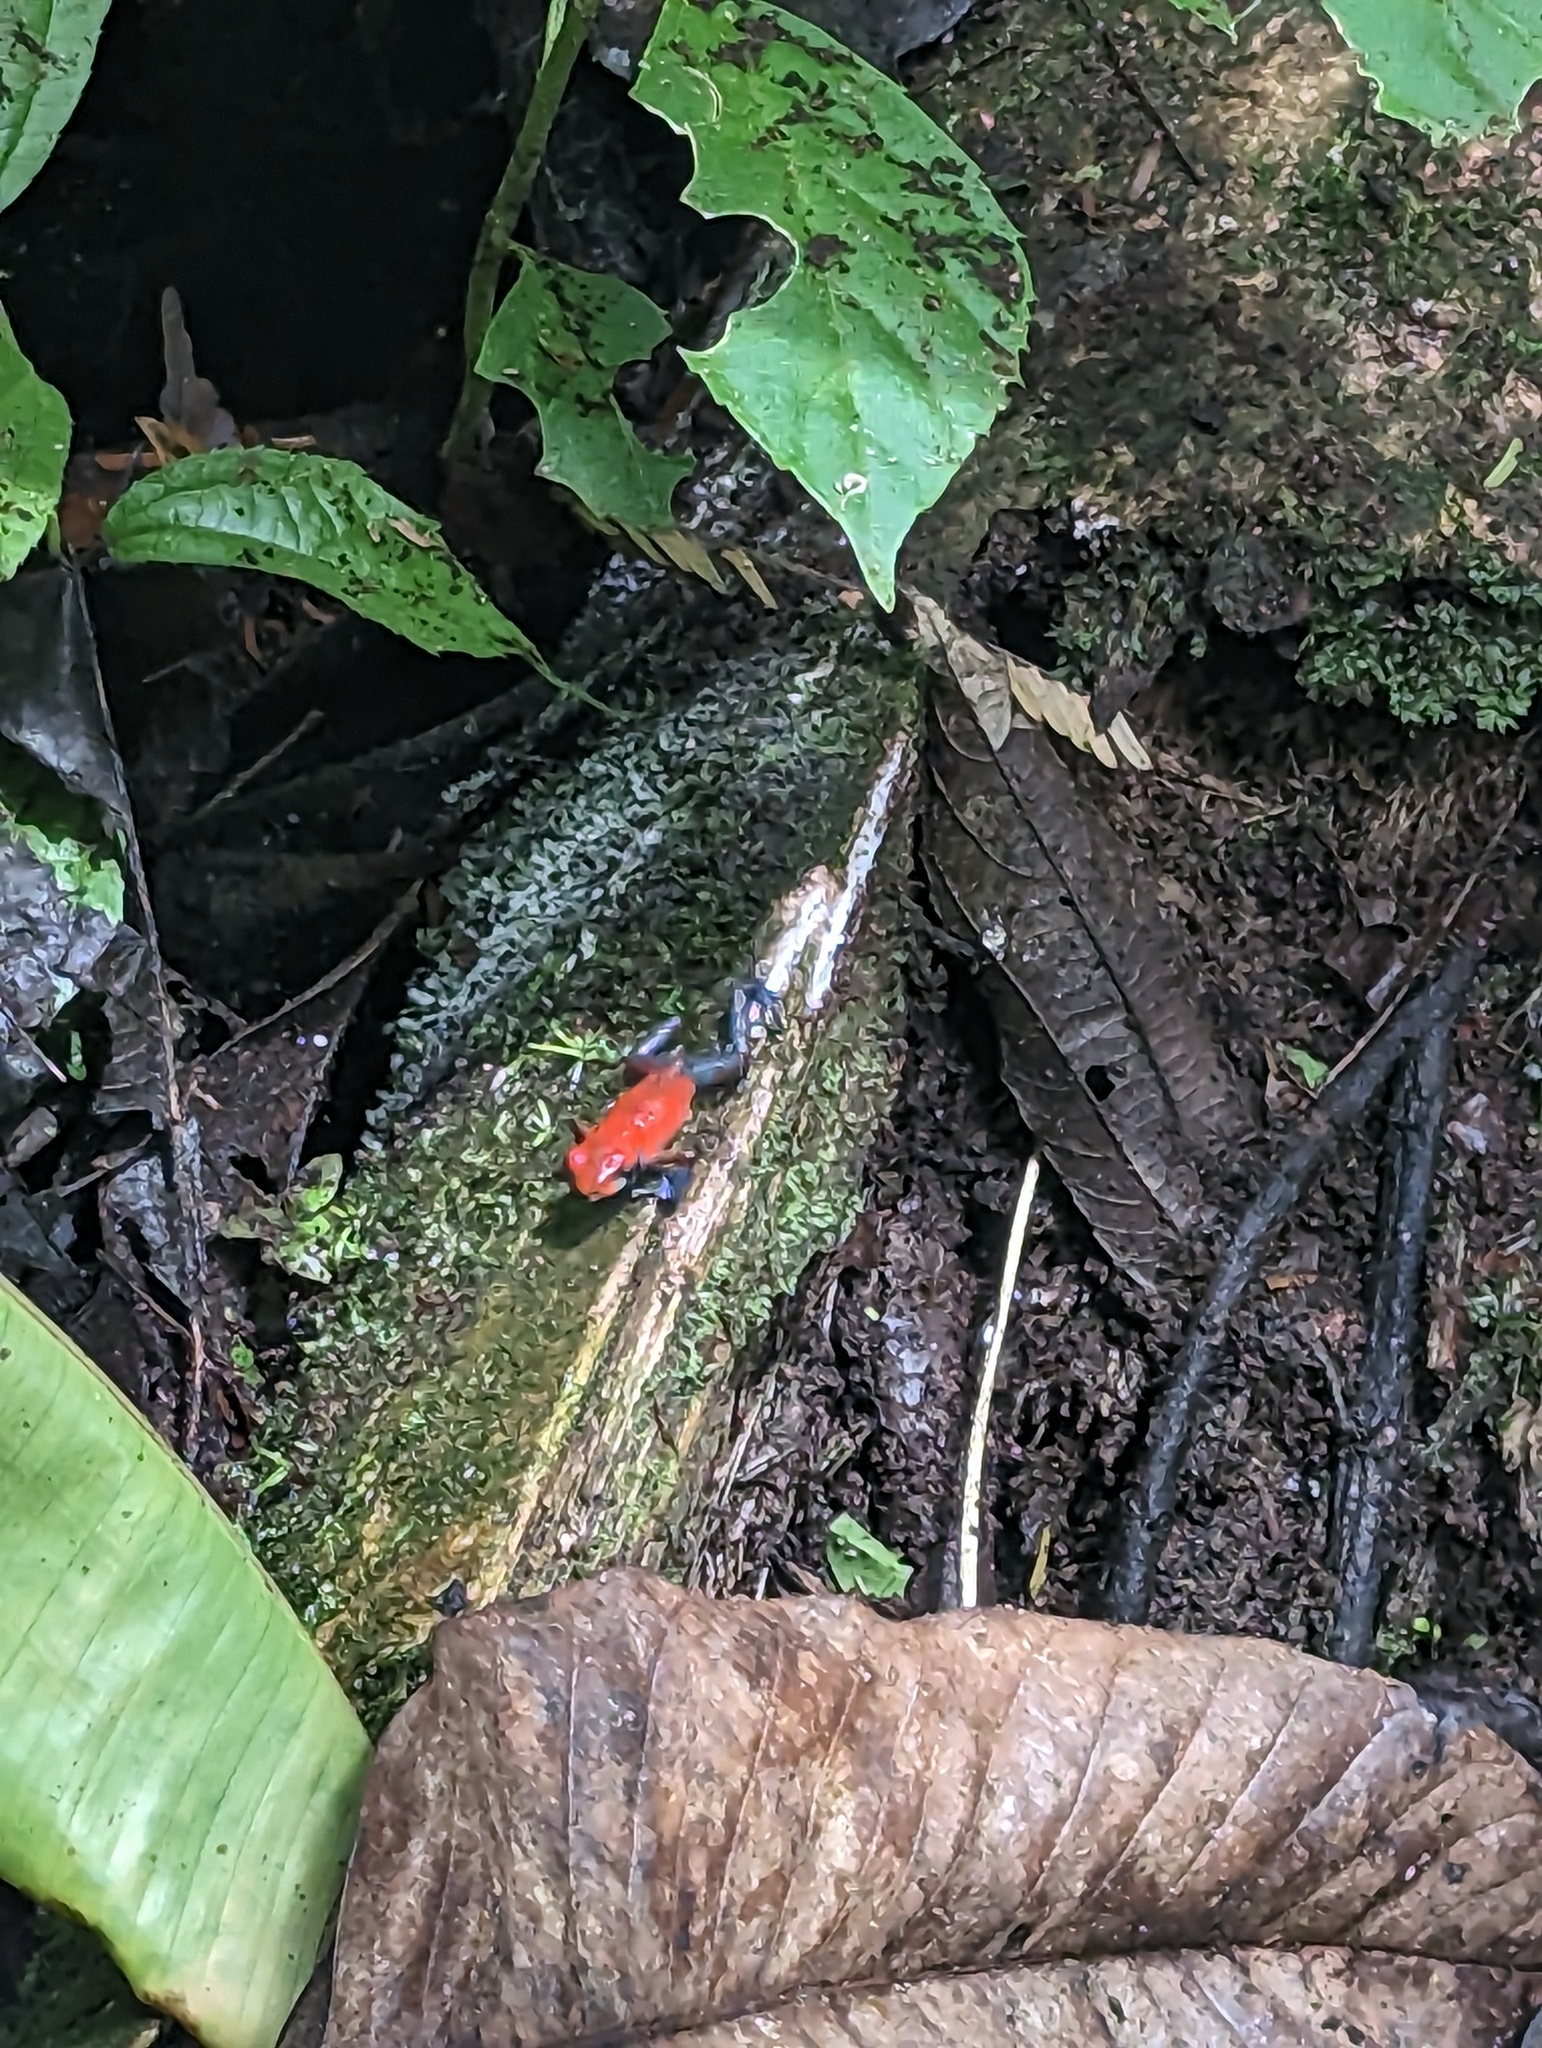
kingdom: Animalia
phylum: Chordata
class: Amphibia
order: Anura
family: Dendrobatidae
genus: Oophaga
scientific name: Oophaga pumilio
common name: Flaming poison frog
